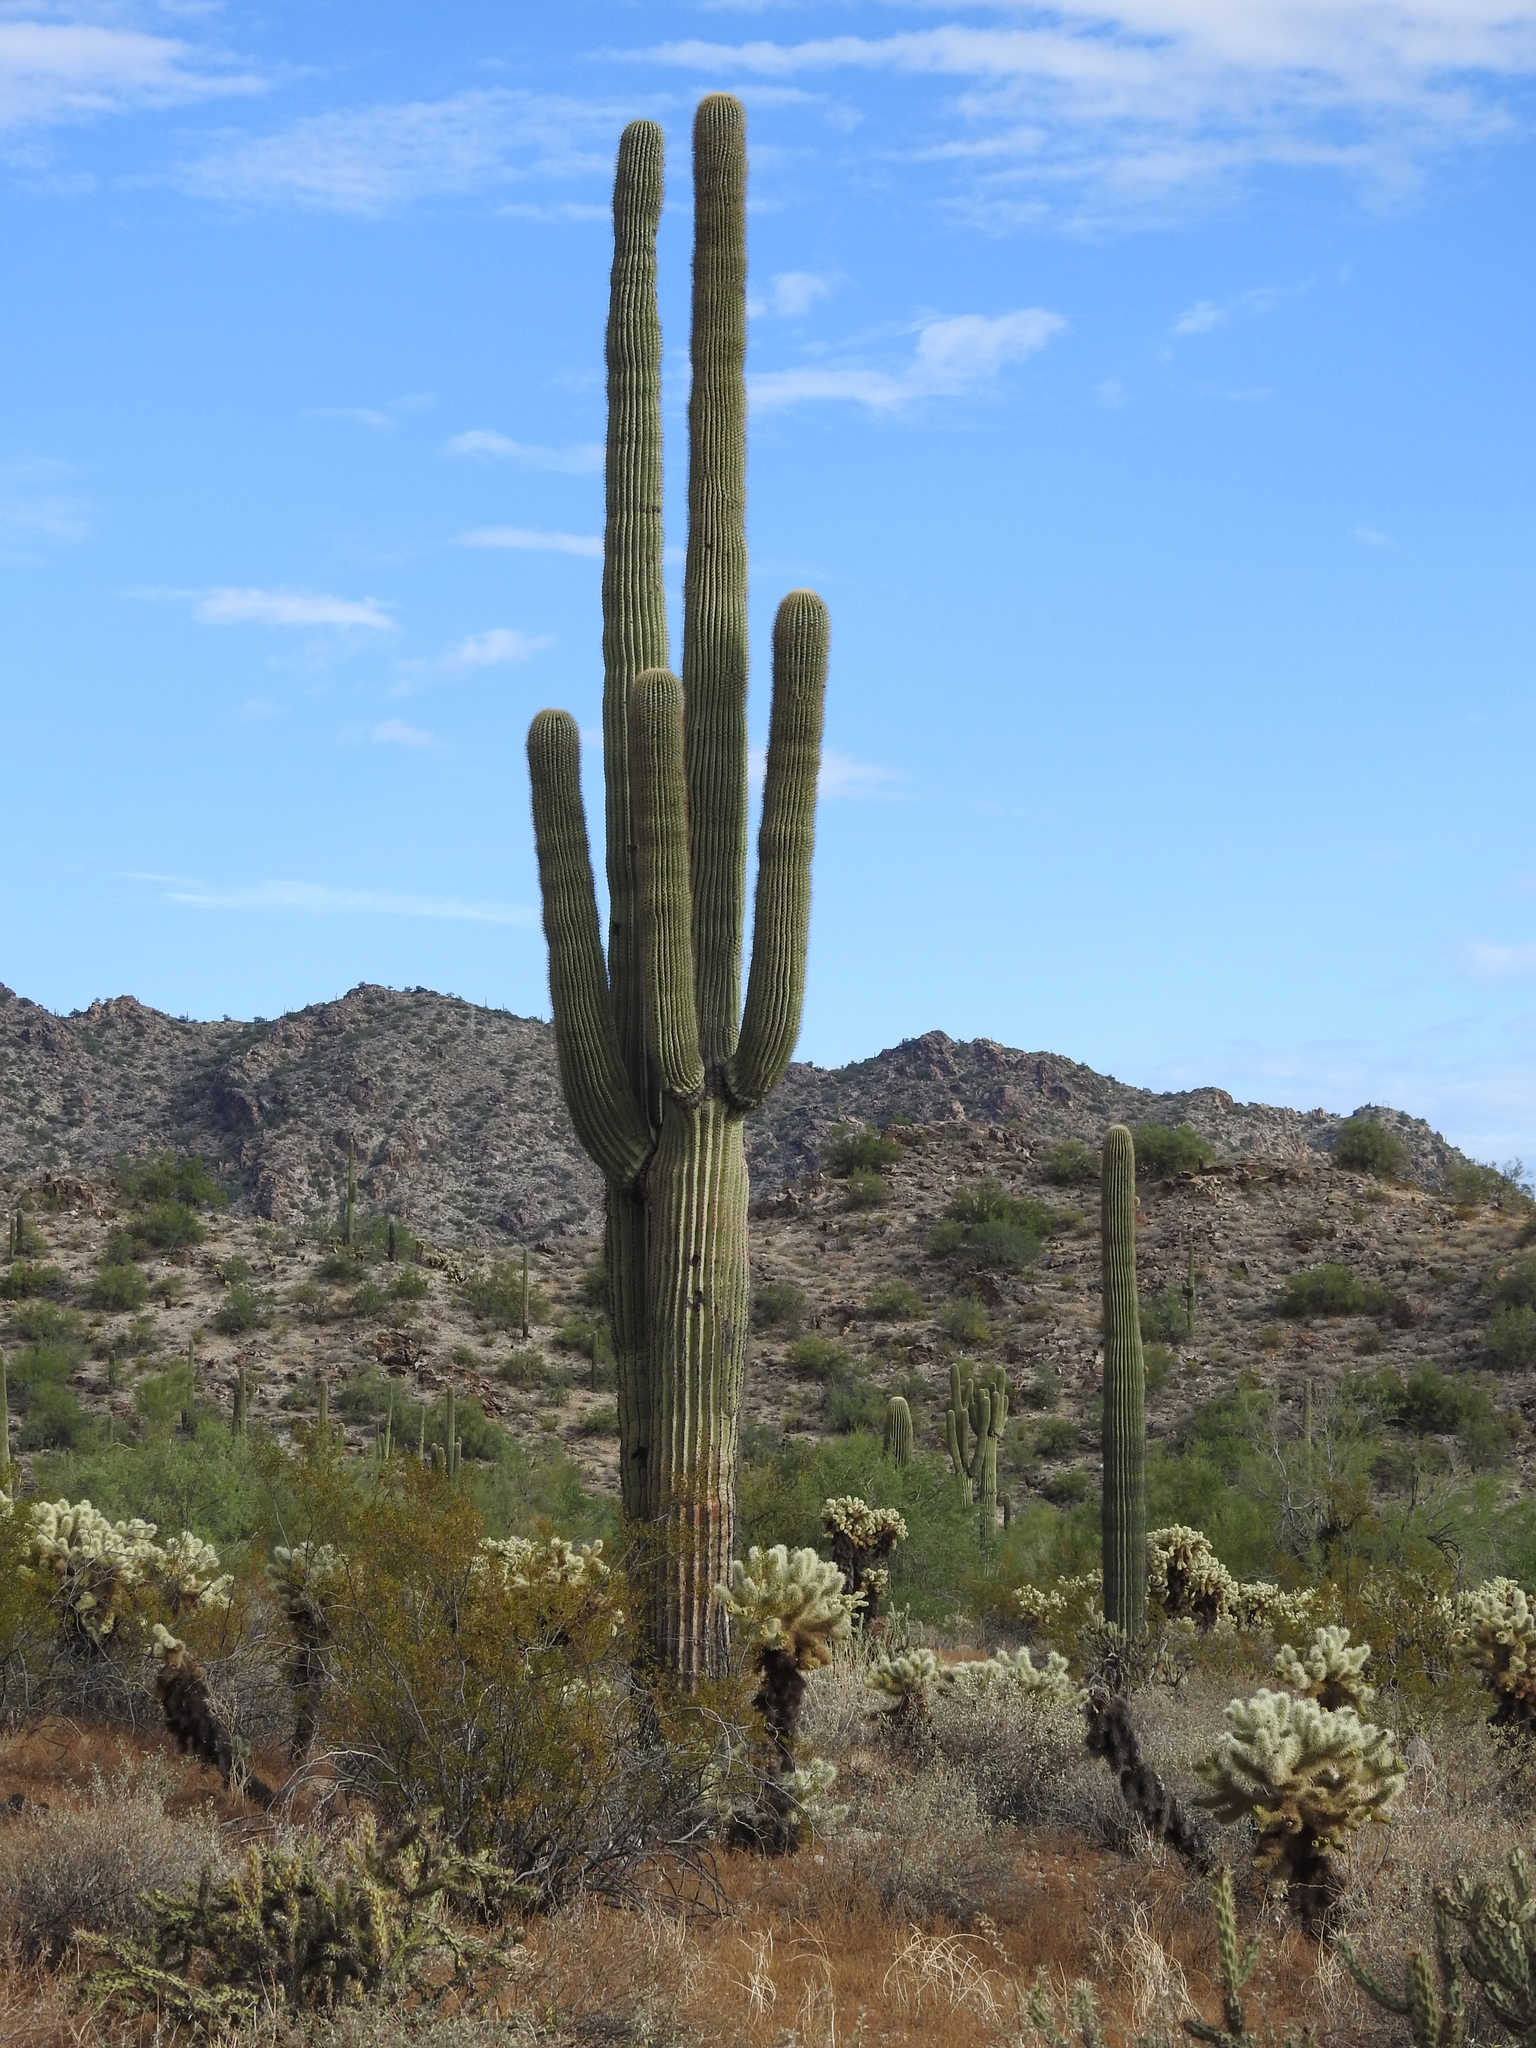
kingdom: Plantae
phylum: Tracheophyta
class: Magnoliopsida
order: Caryophyllales
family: Cactaceae
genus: Carnegiea
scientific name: Carnegiea gigantea
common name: Saguaro
